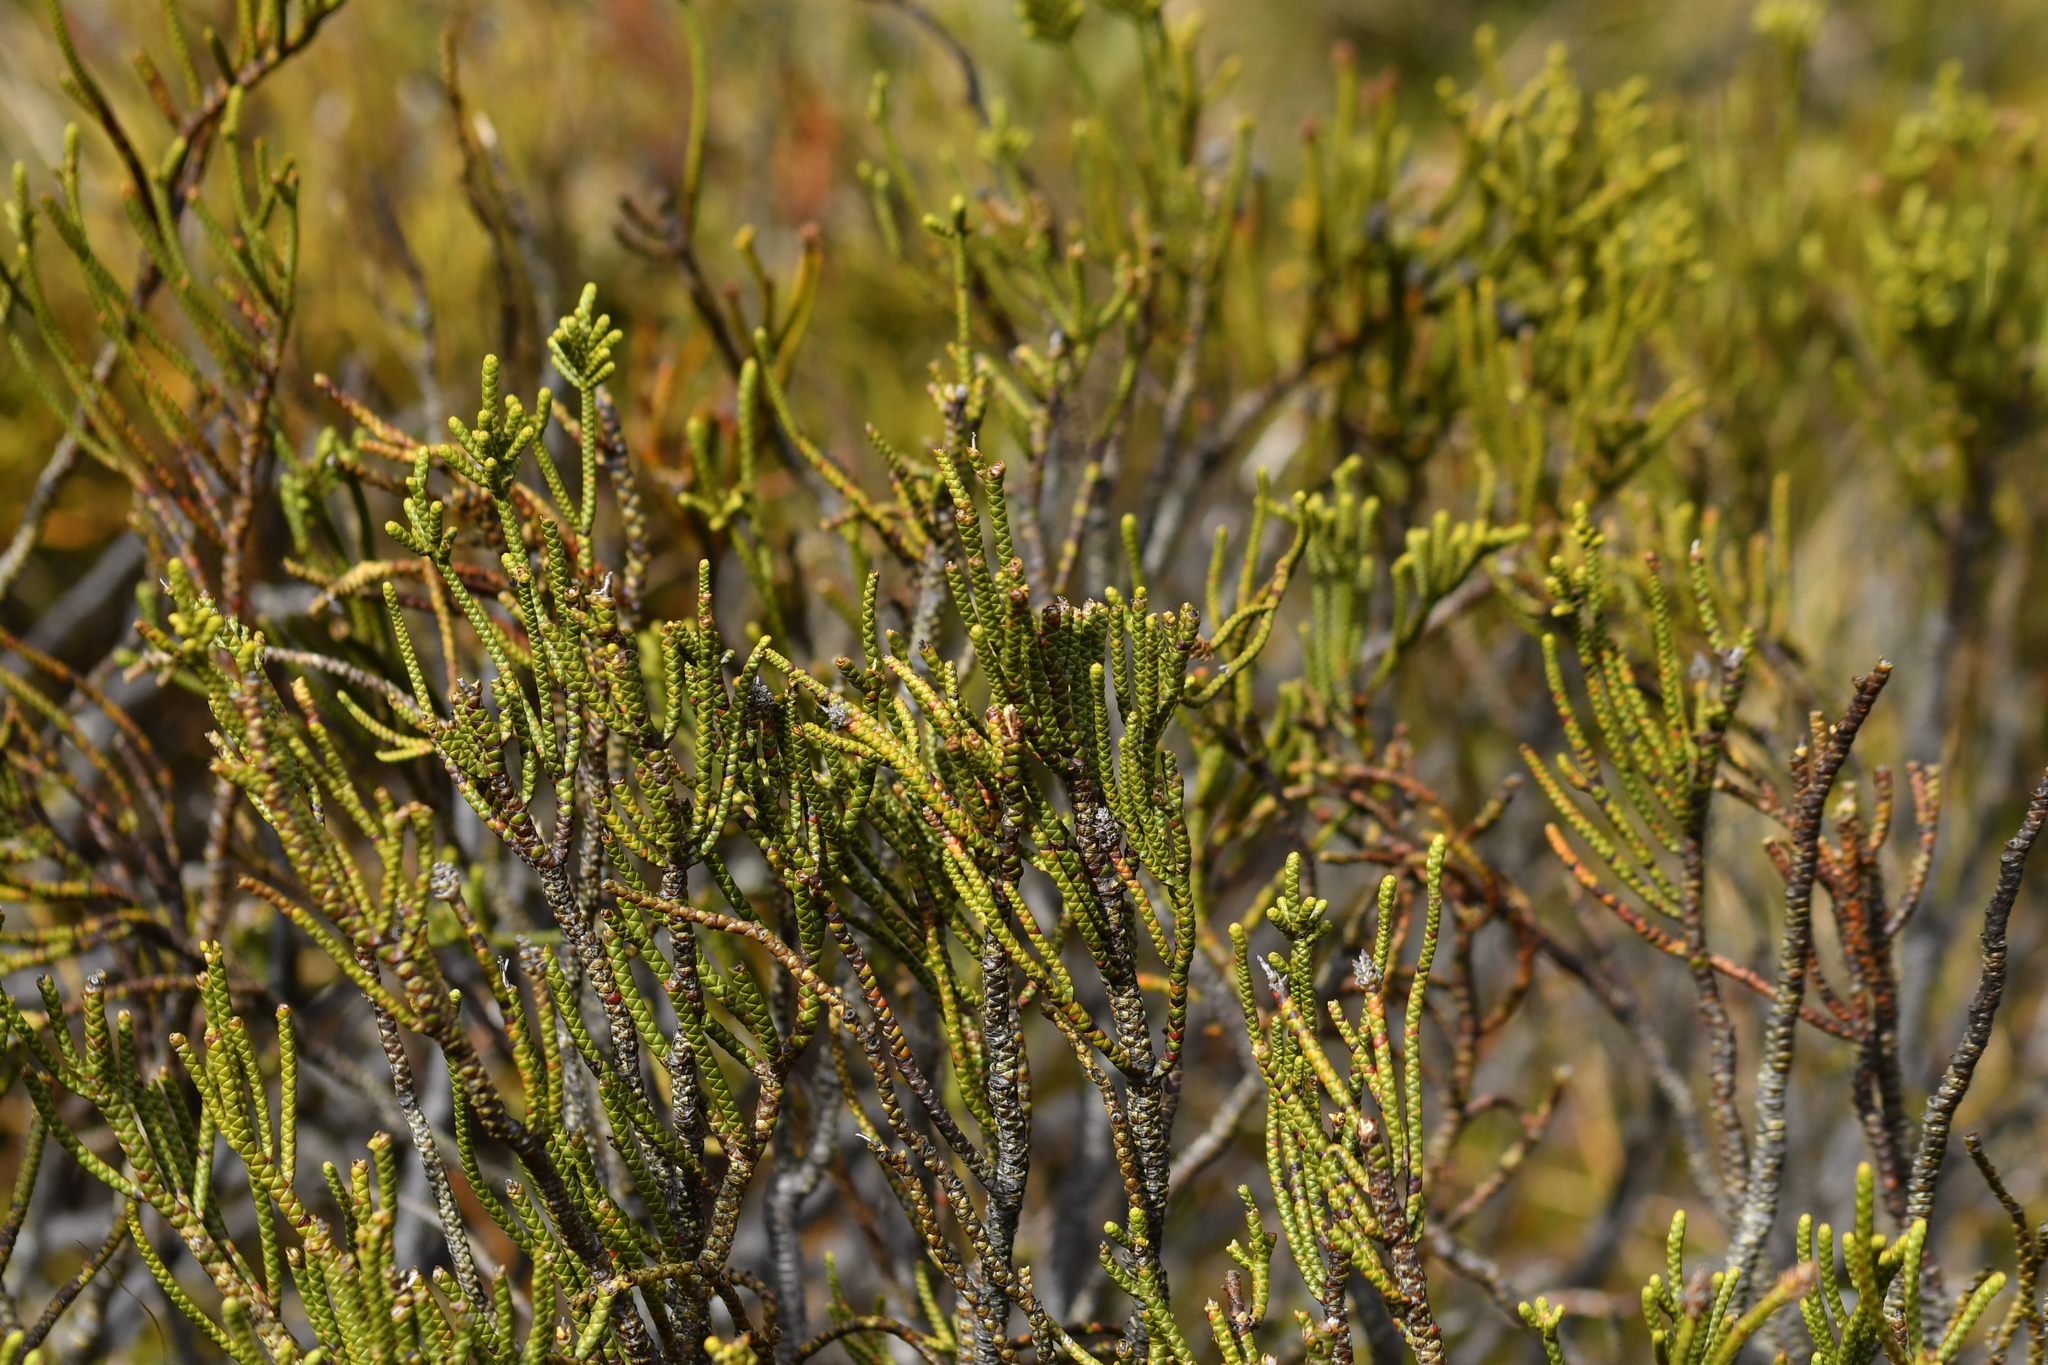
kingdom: Plantae
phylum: Tracheophyta
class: Magnoliopsida
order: Lamiales
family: Plantaginaceae
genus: Veronica
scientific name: Veronica hectorii
